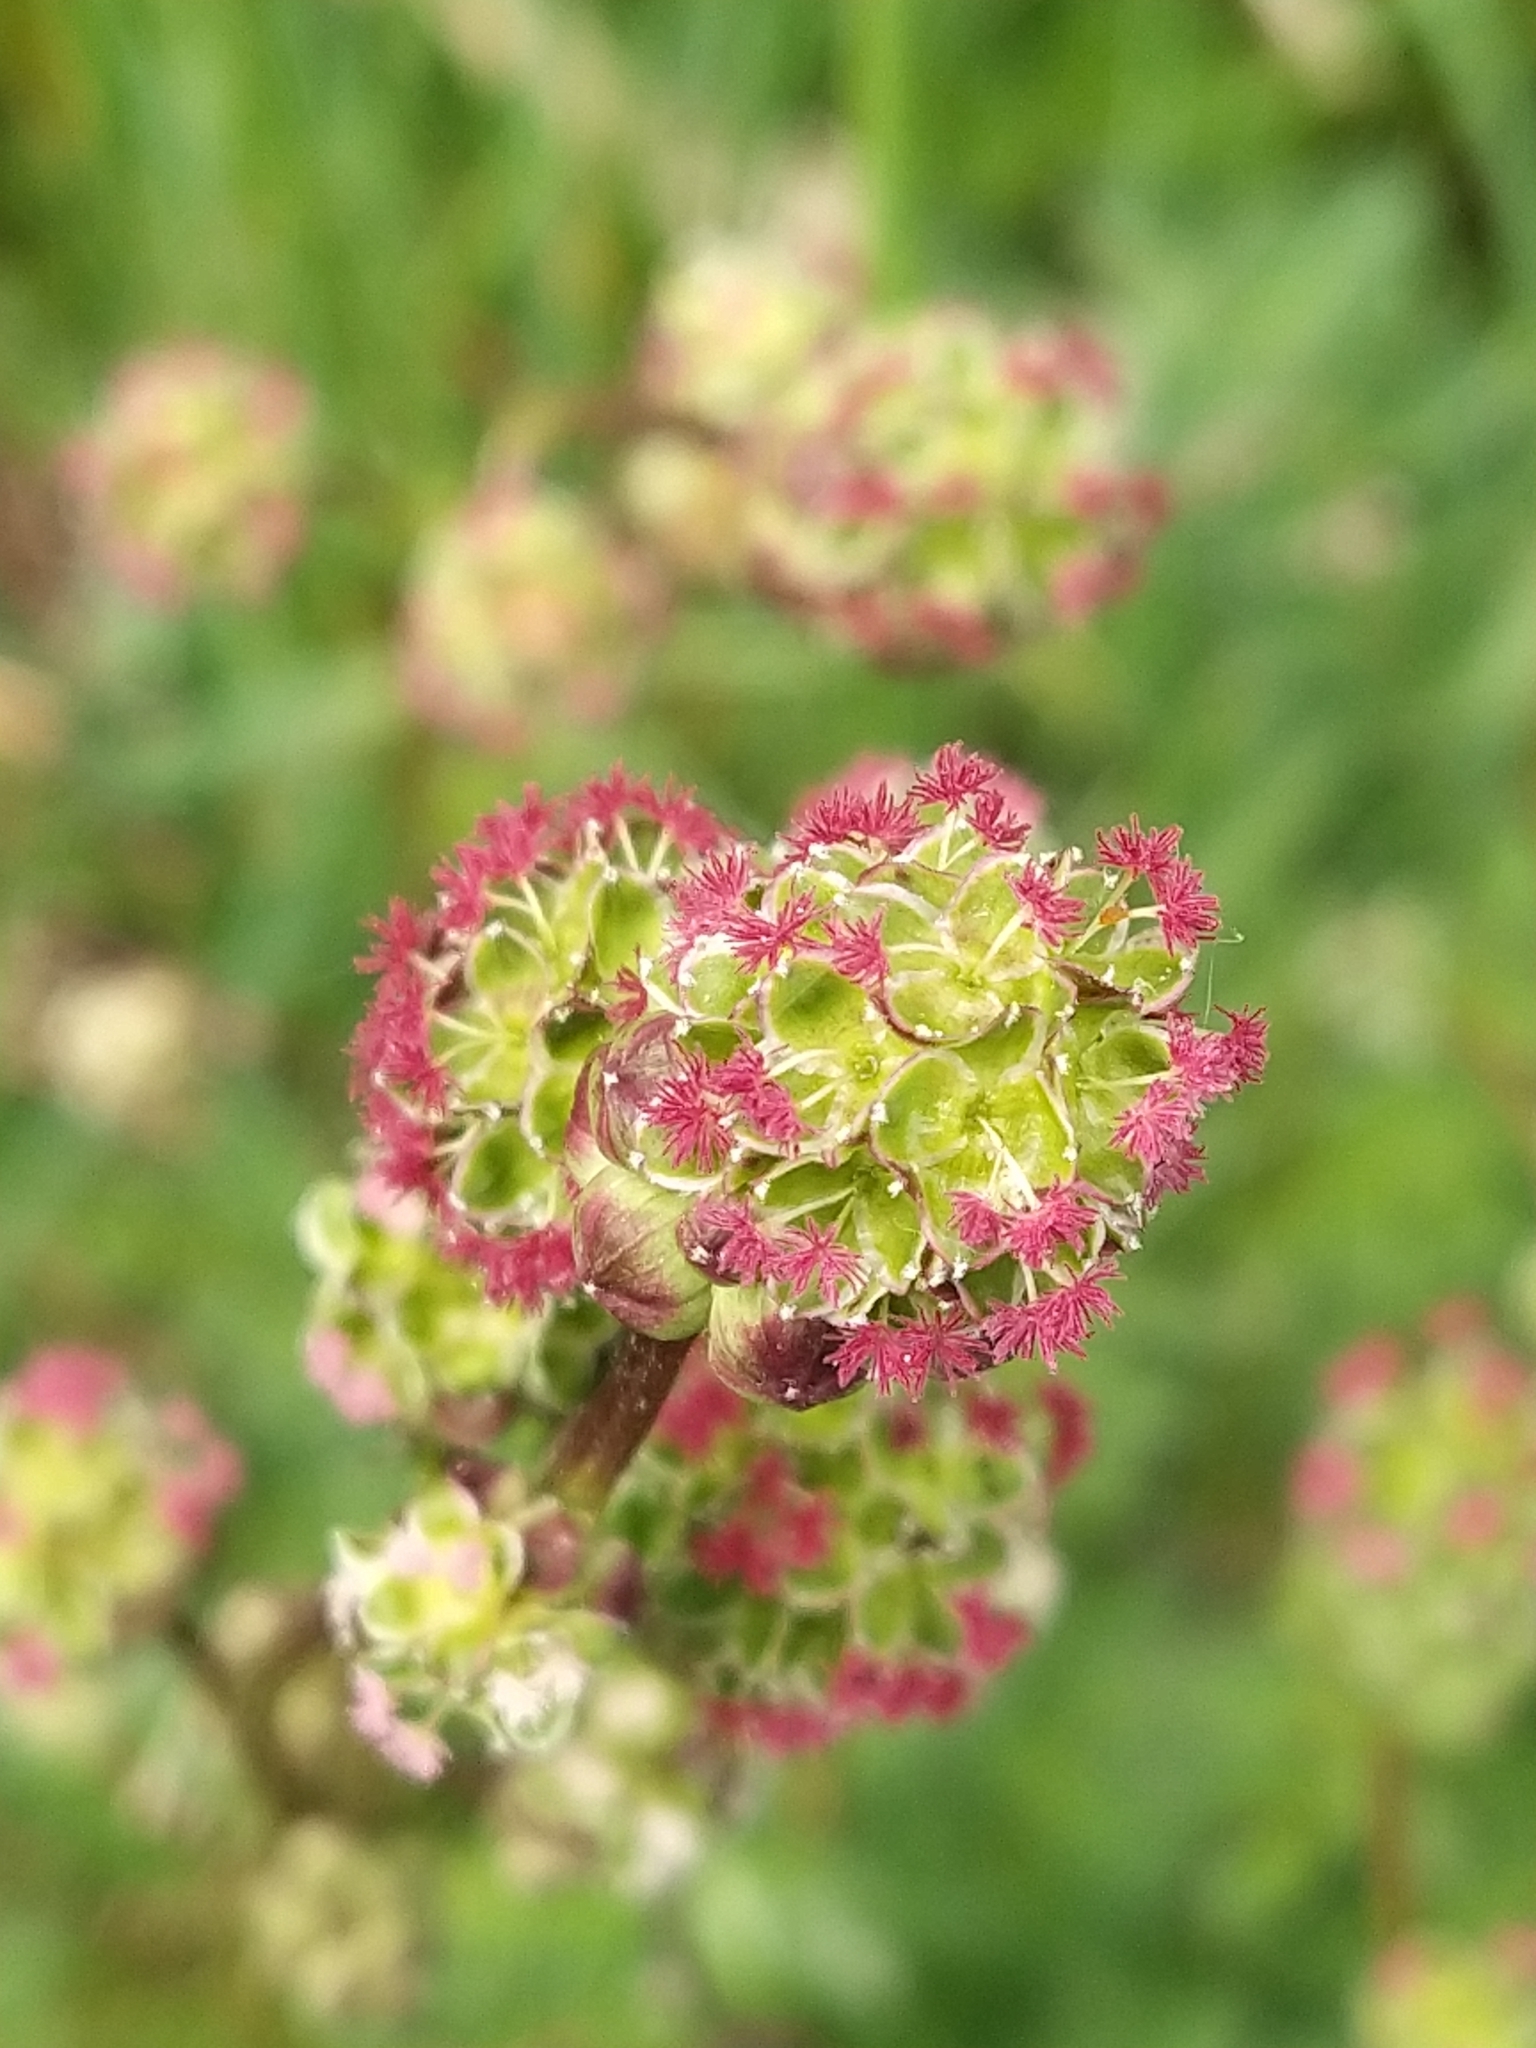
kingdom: Plantae
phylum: Tracheophyta
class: Magnoliopsida
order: Rosales
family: Rosaceae
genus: Poterium
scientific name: Poterium sanguisorba
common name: Salad burnet
